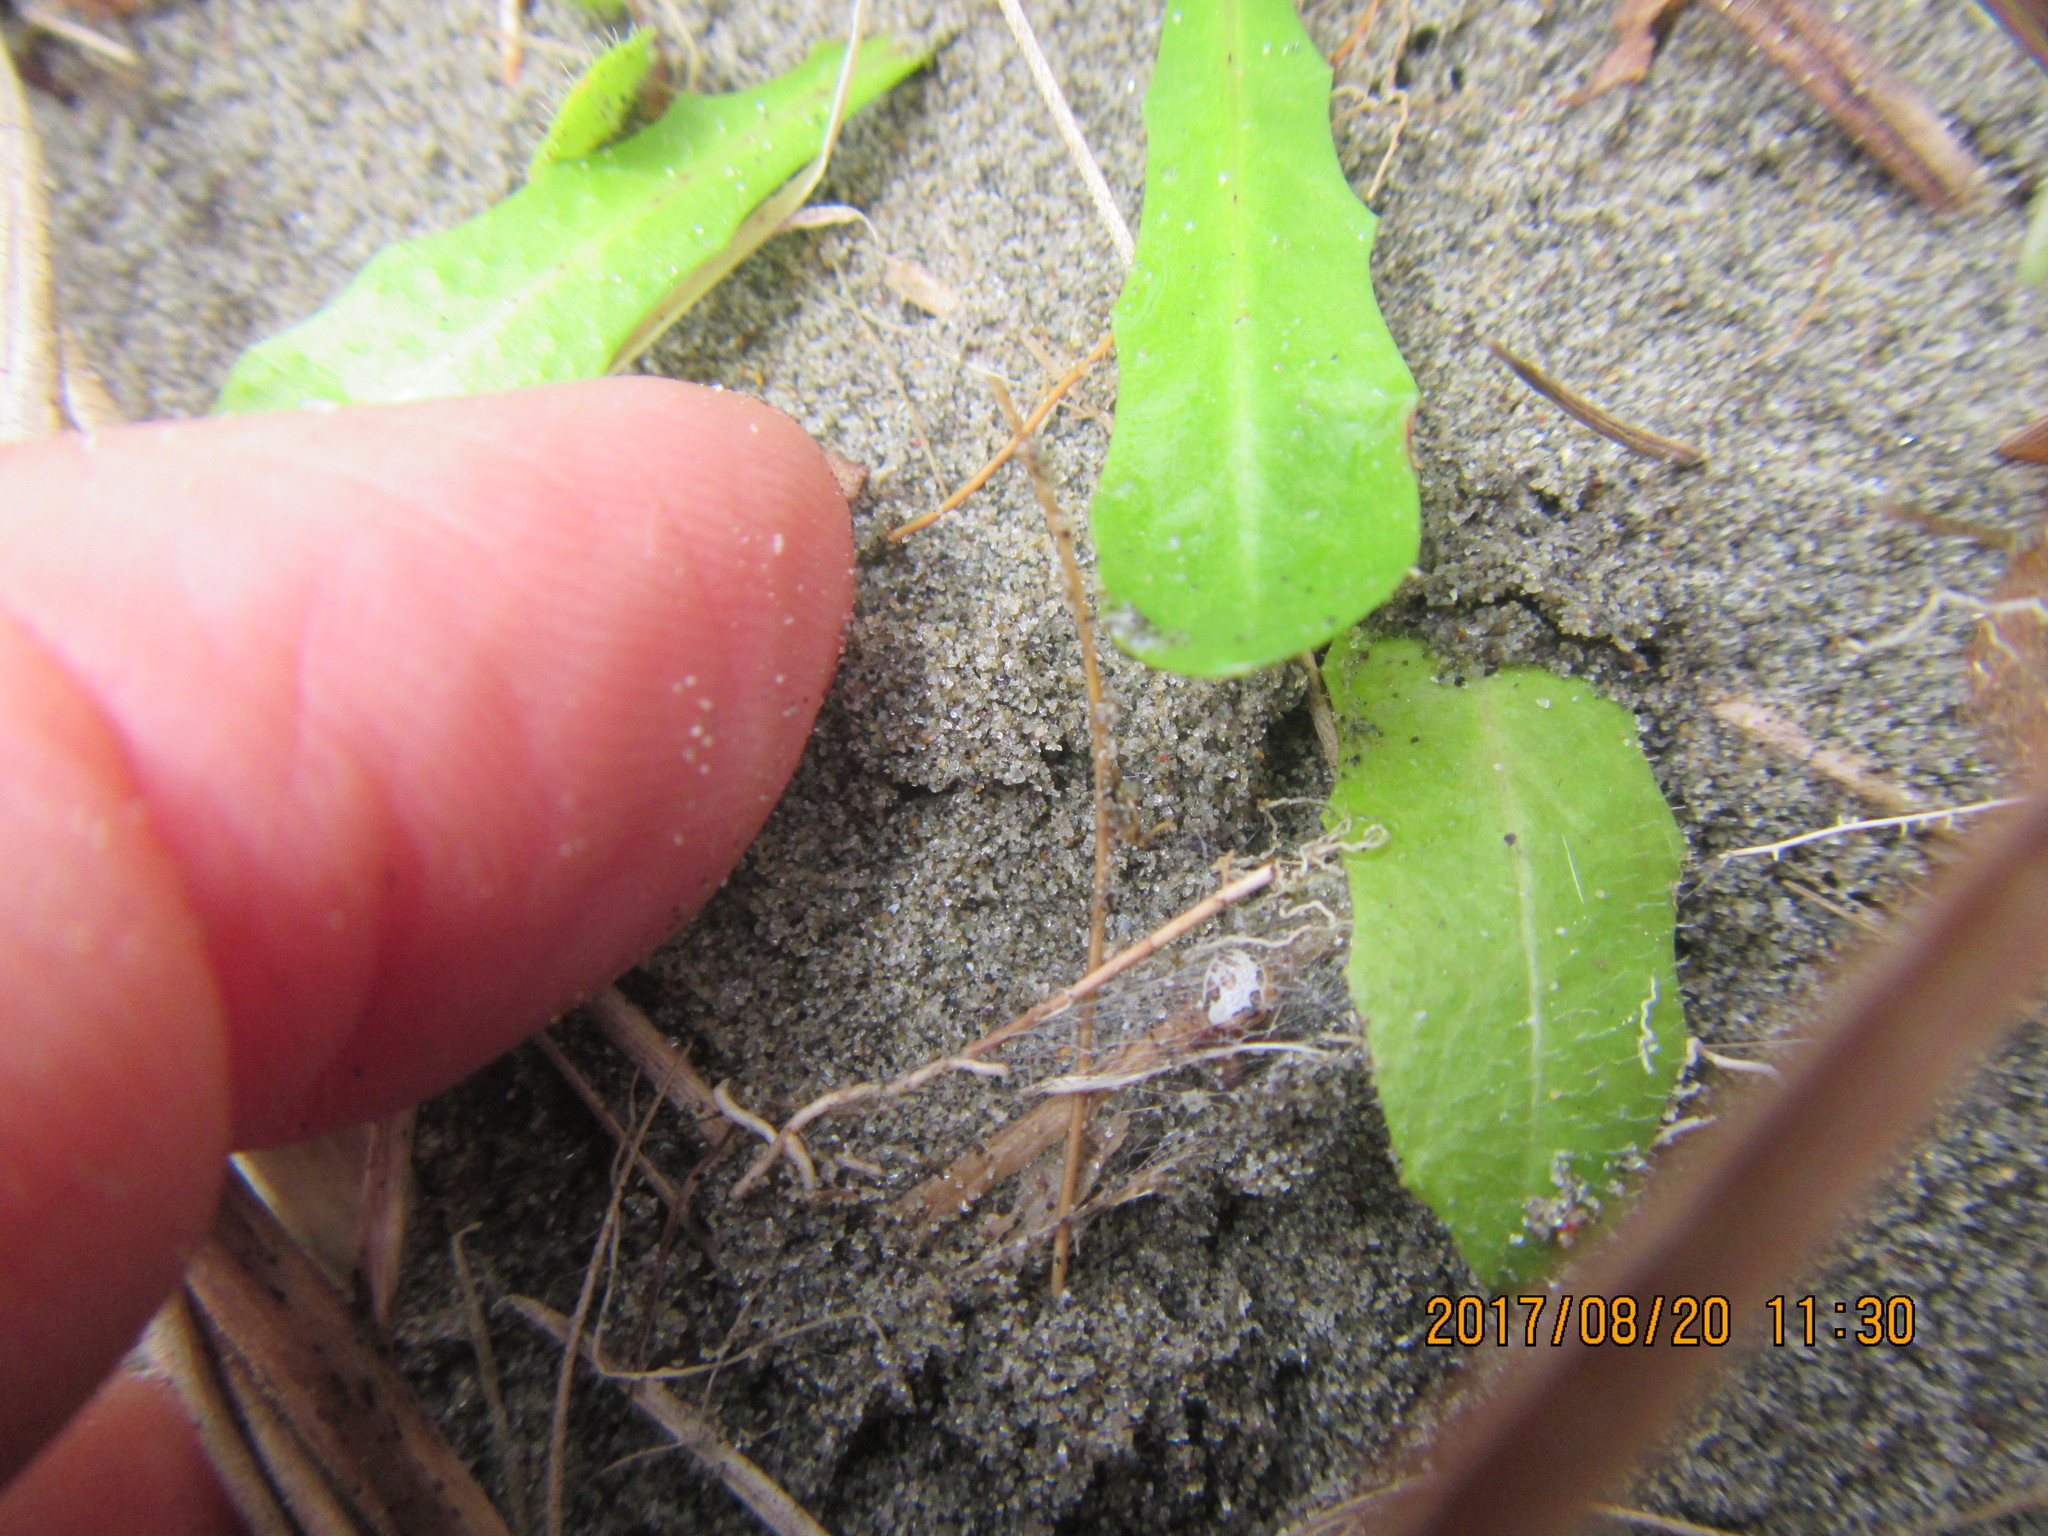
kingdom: Animalia
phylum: Arthropoda
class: Arachnida
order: Araneae
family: Theridiidae
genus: Latrodectus
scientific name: Latrodectus katipo
